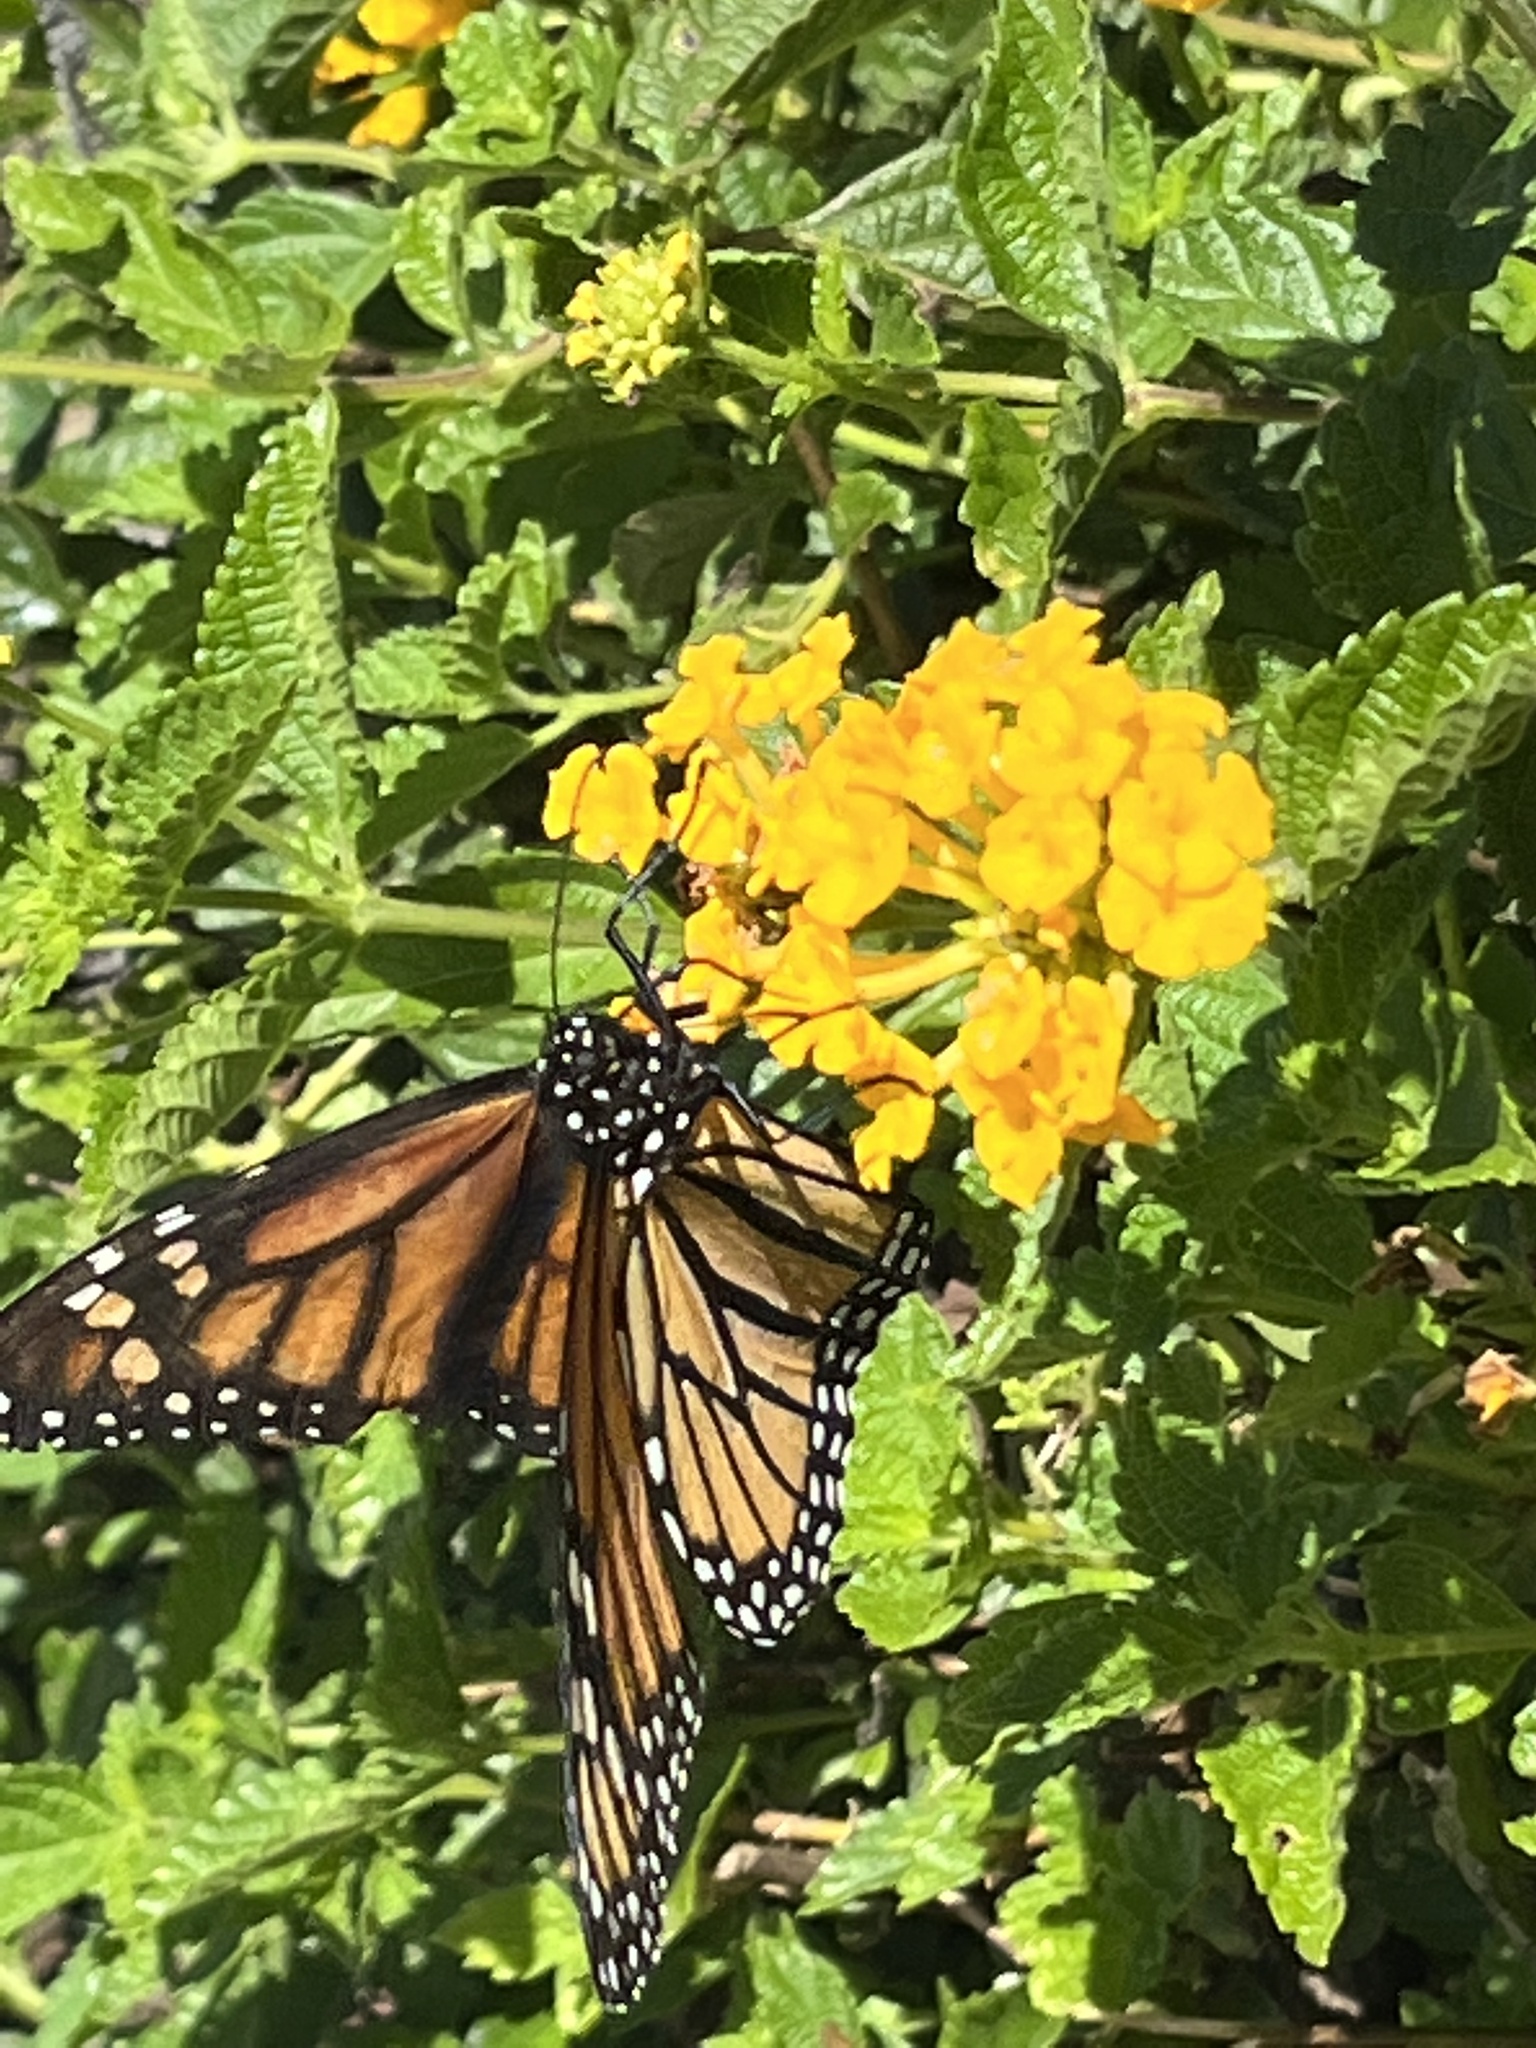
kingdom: Animalia
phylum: Arthropoda
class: Insecta
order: Lepidoptera
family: Nymphalidae
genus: Danaus
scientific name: Danaus plexippus
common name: Monarch
